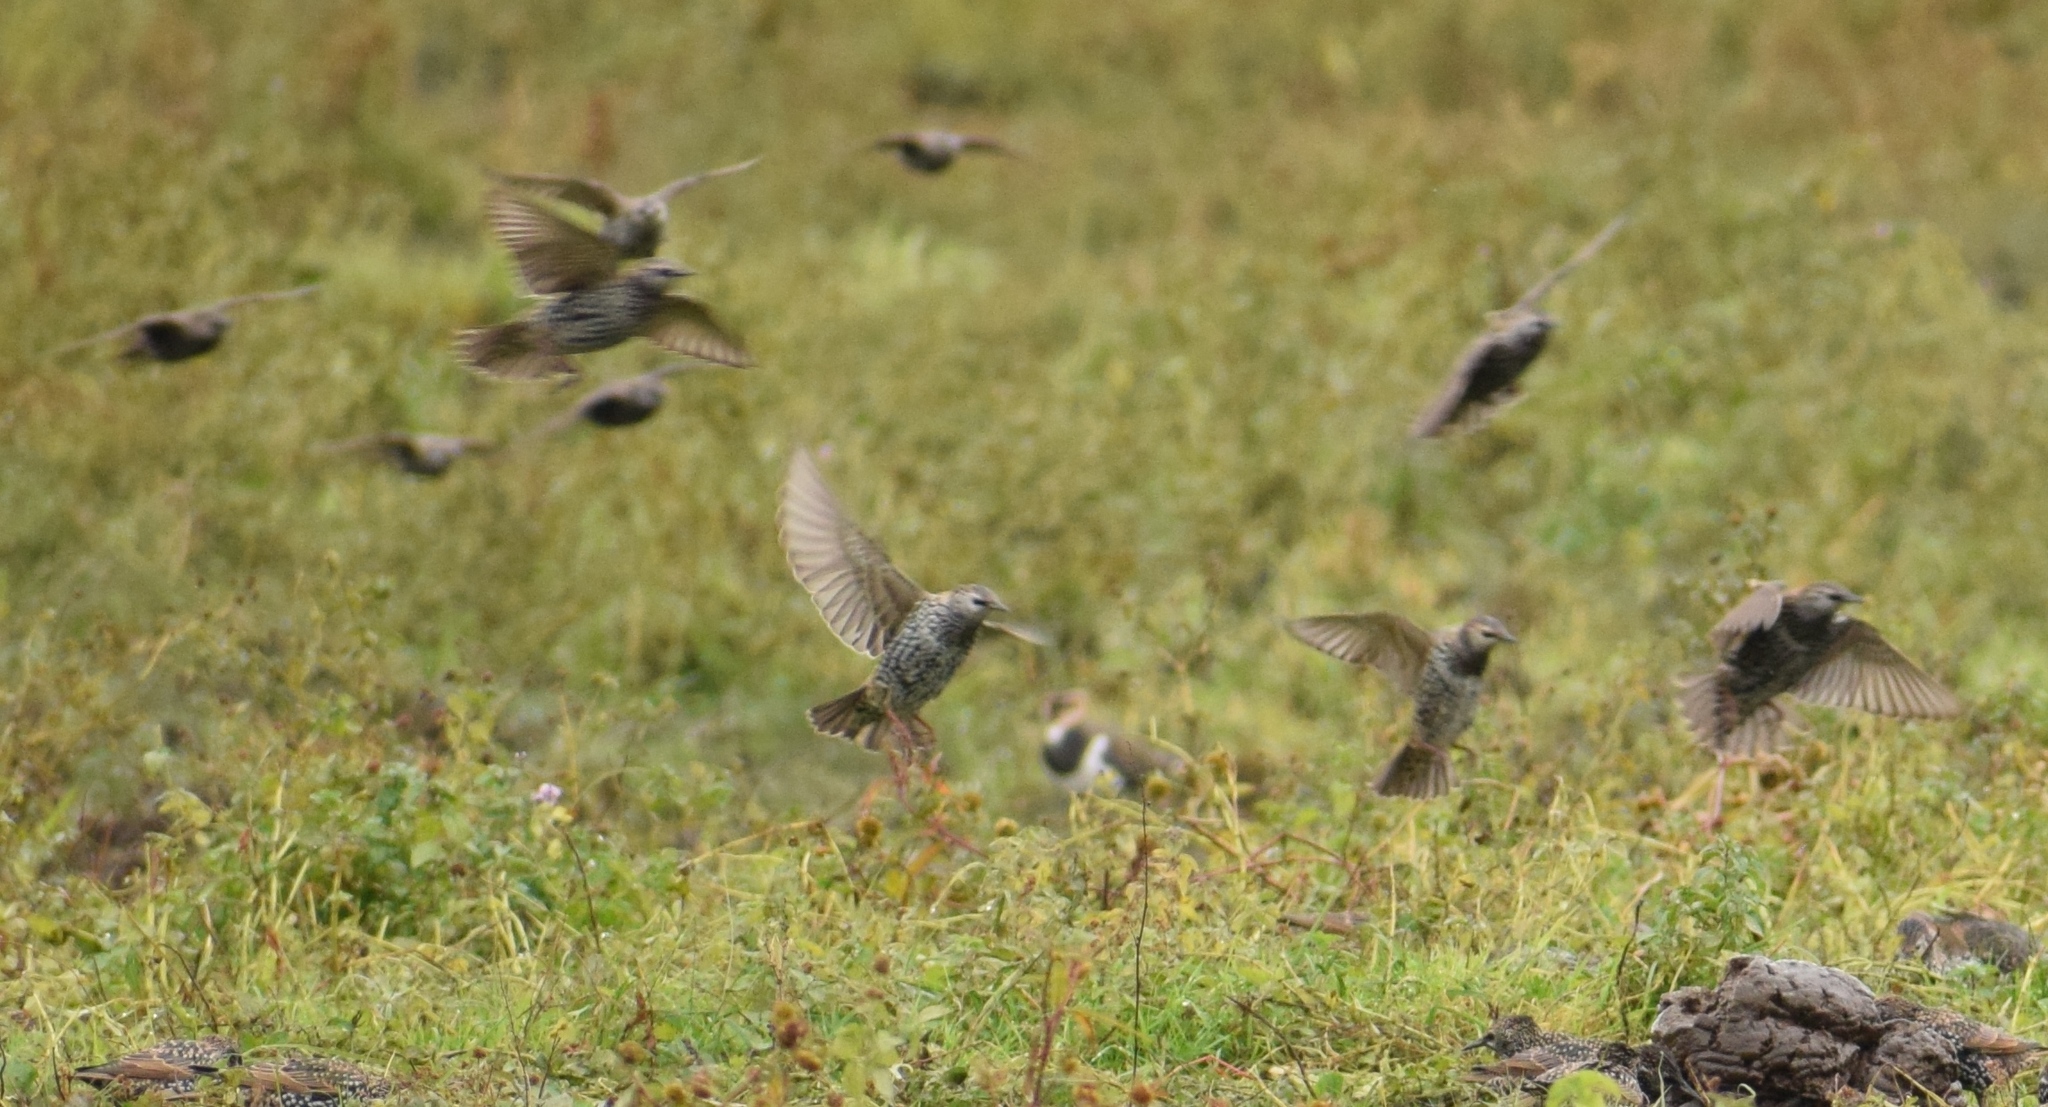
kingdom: Animalia
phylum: Chordata
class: Aves
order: Passeriformes
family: Sturnidae
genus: Sturnus
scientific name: Sturnus vulgaris
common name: Common starling
